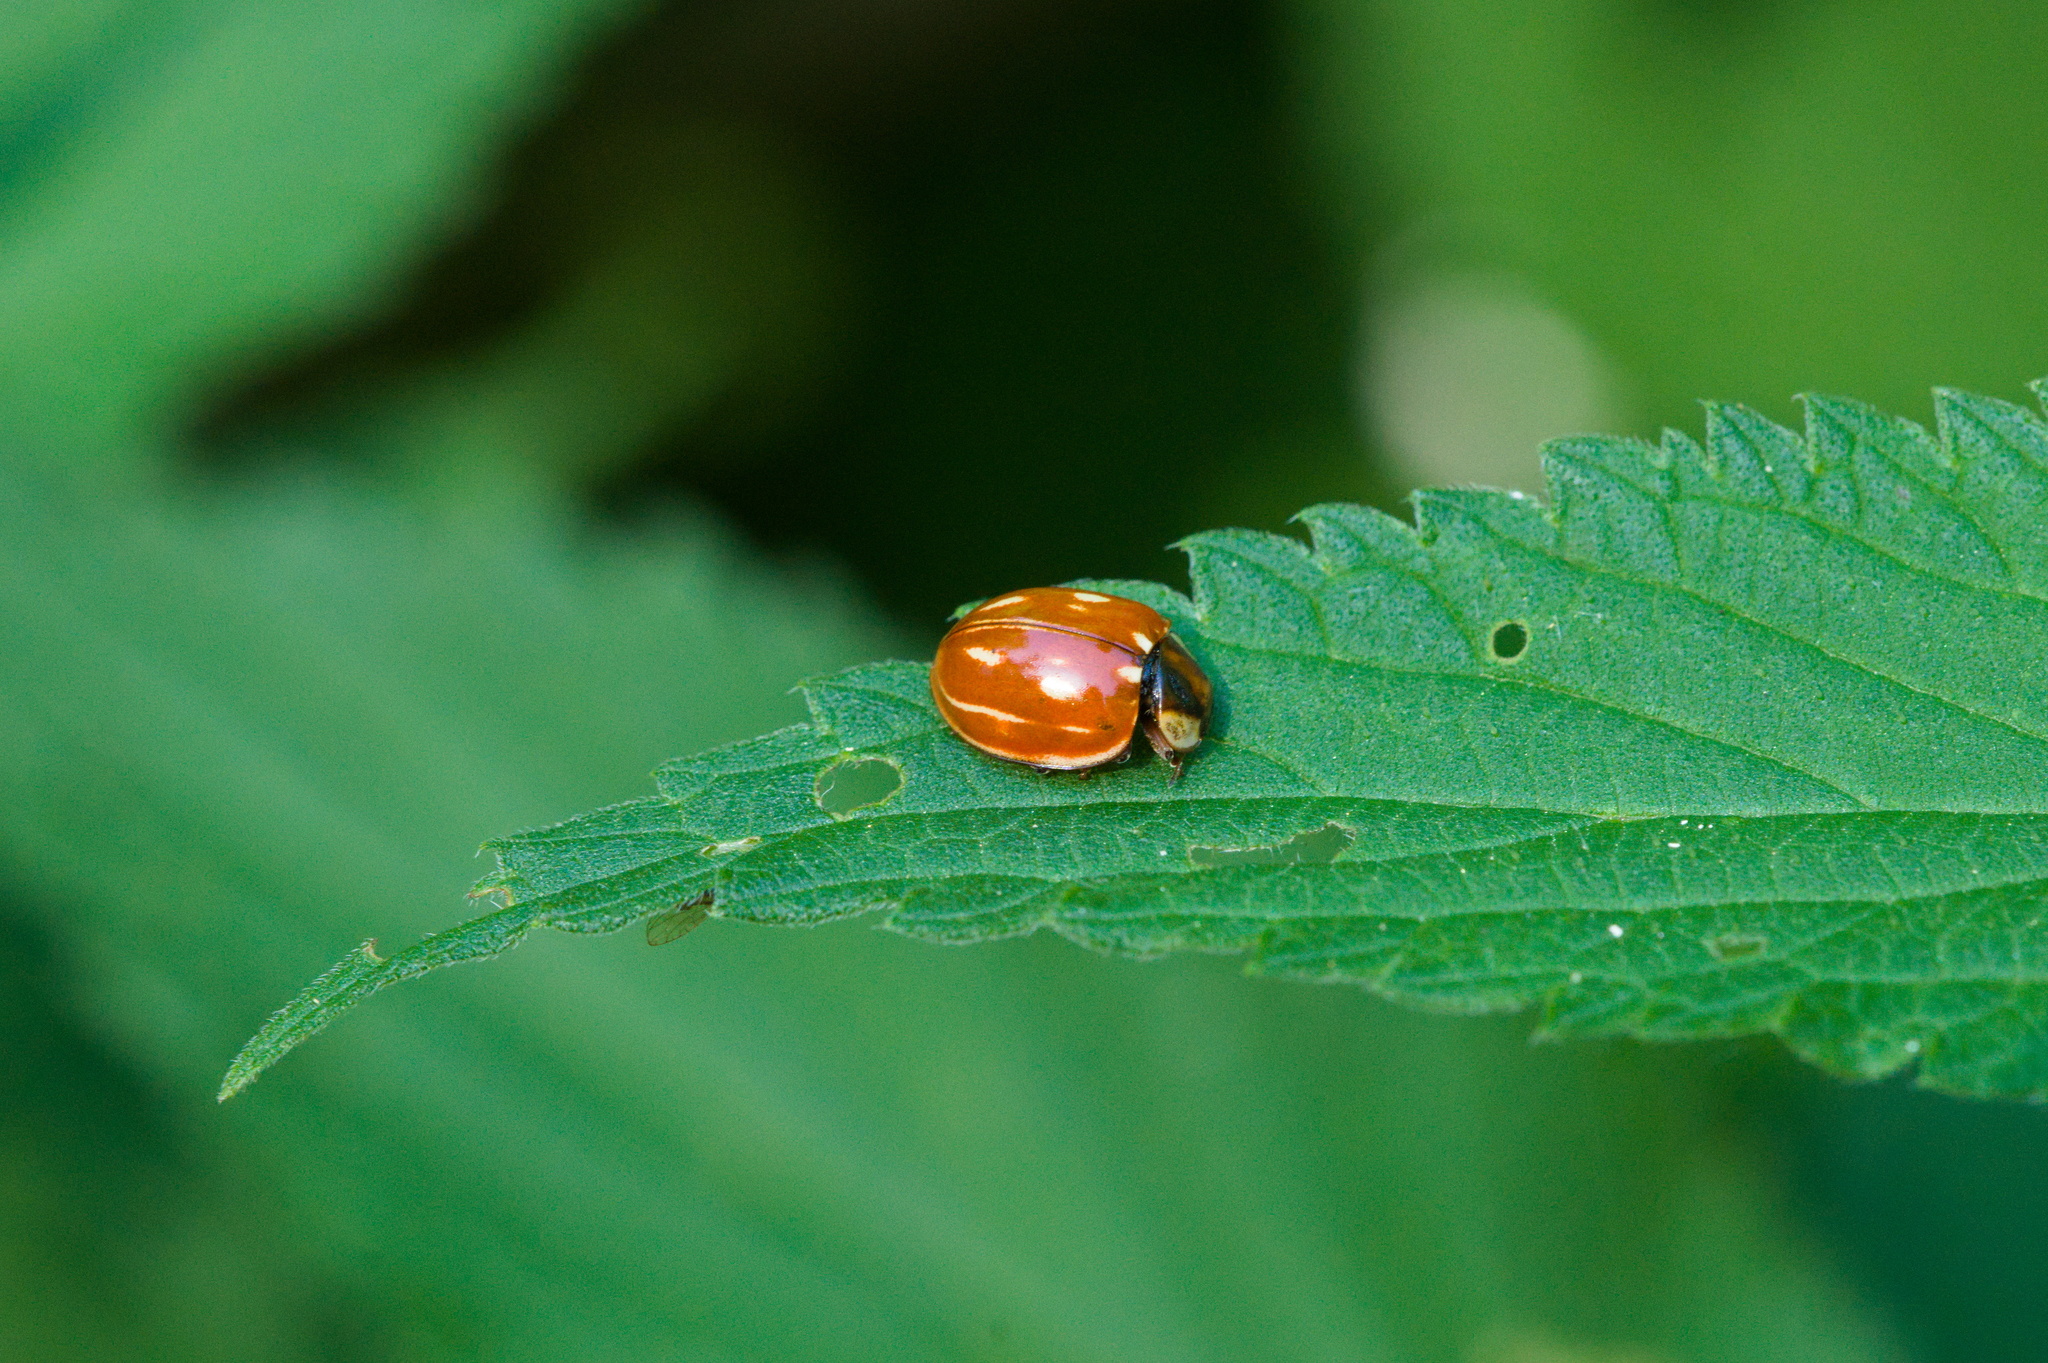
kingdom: Animalia
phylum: Arthropoda
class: Insecta
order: Coleoptera
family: Coccinellidae
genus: Myzia
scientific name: Myzia oblongoguttata
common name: Striped ladybird
